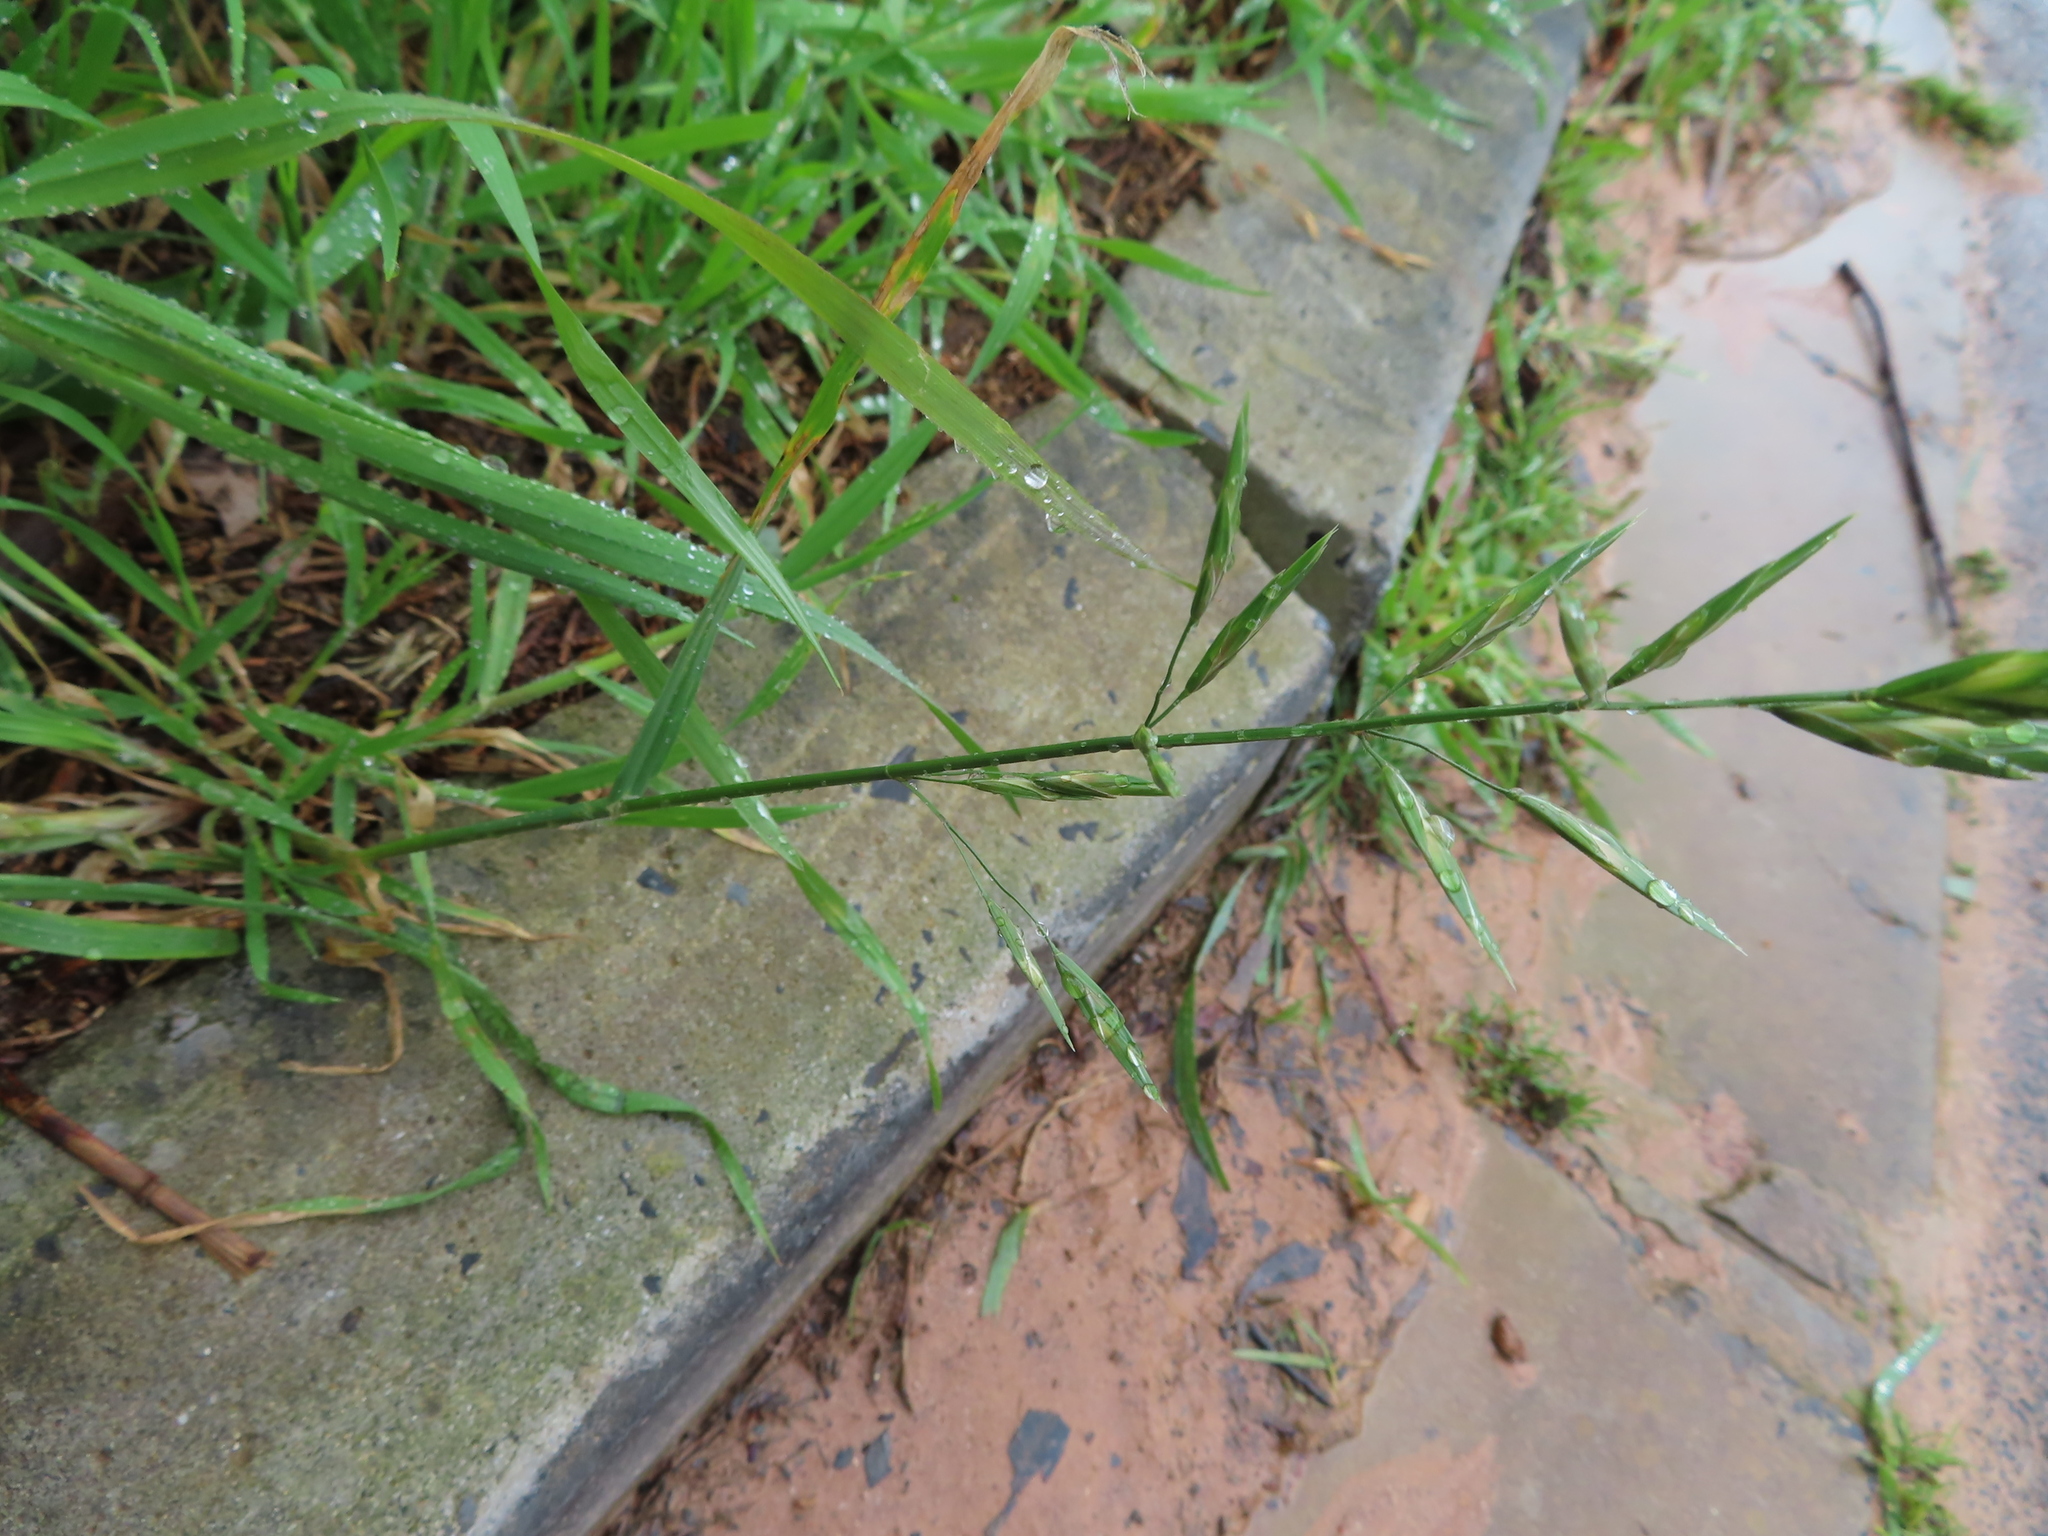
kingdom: Plantae
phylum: Tracheophyta
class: Liliopsida
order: Poales
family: Poaceae
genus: Bromus
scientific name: Bromus catharticus
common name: Rescuegrass
